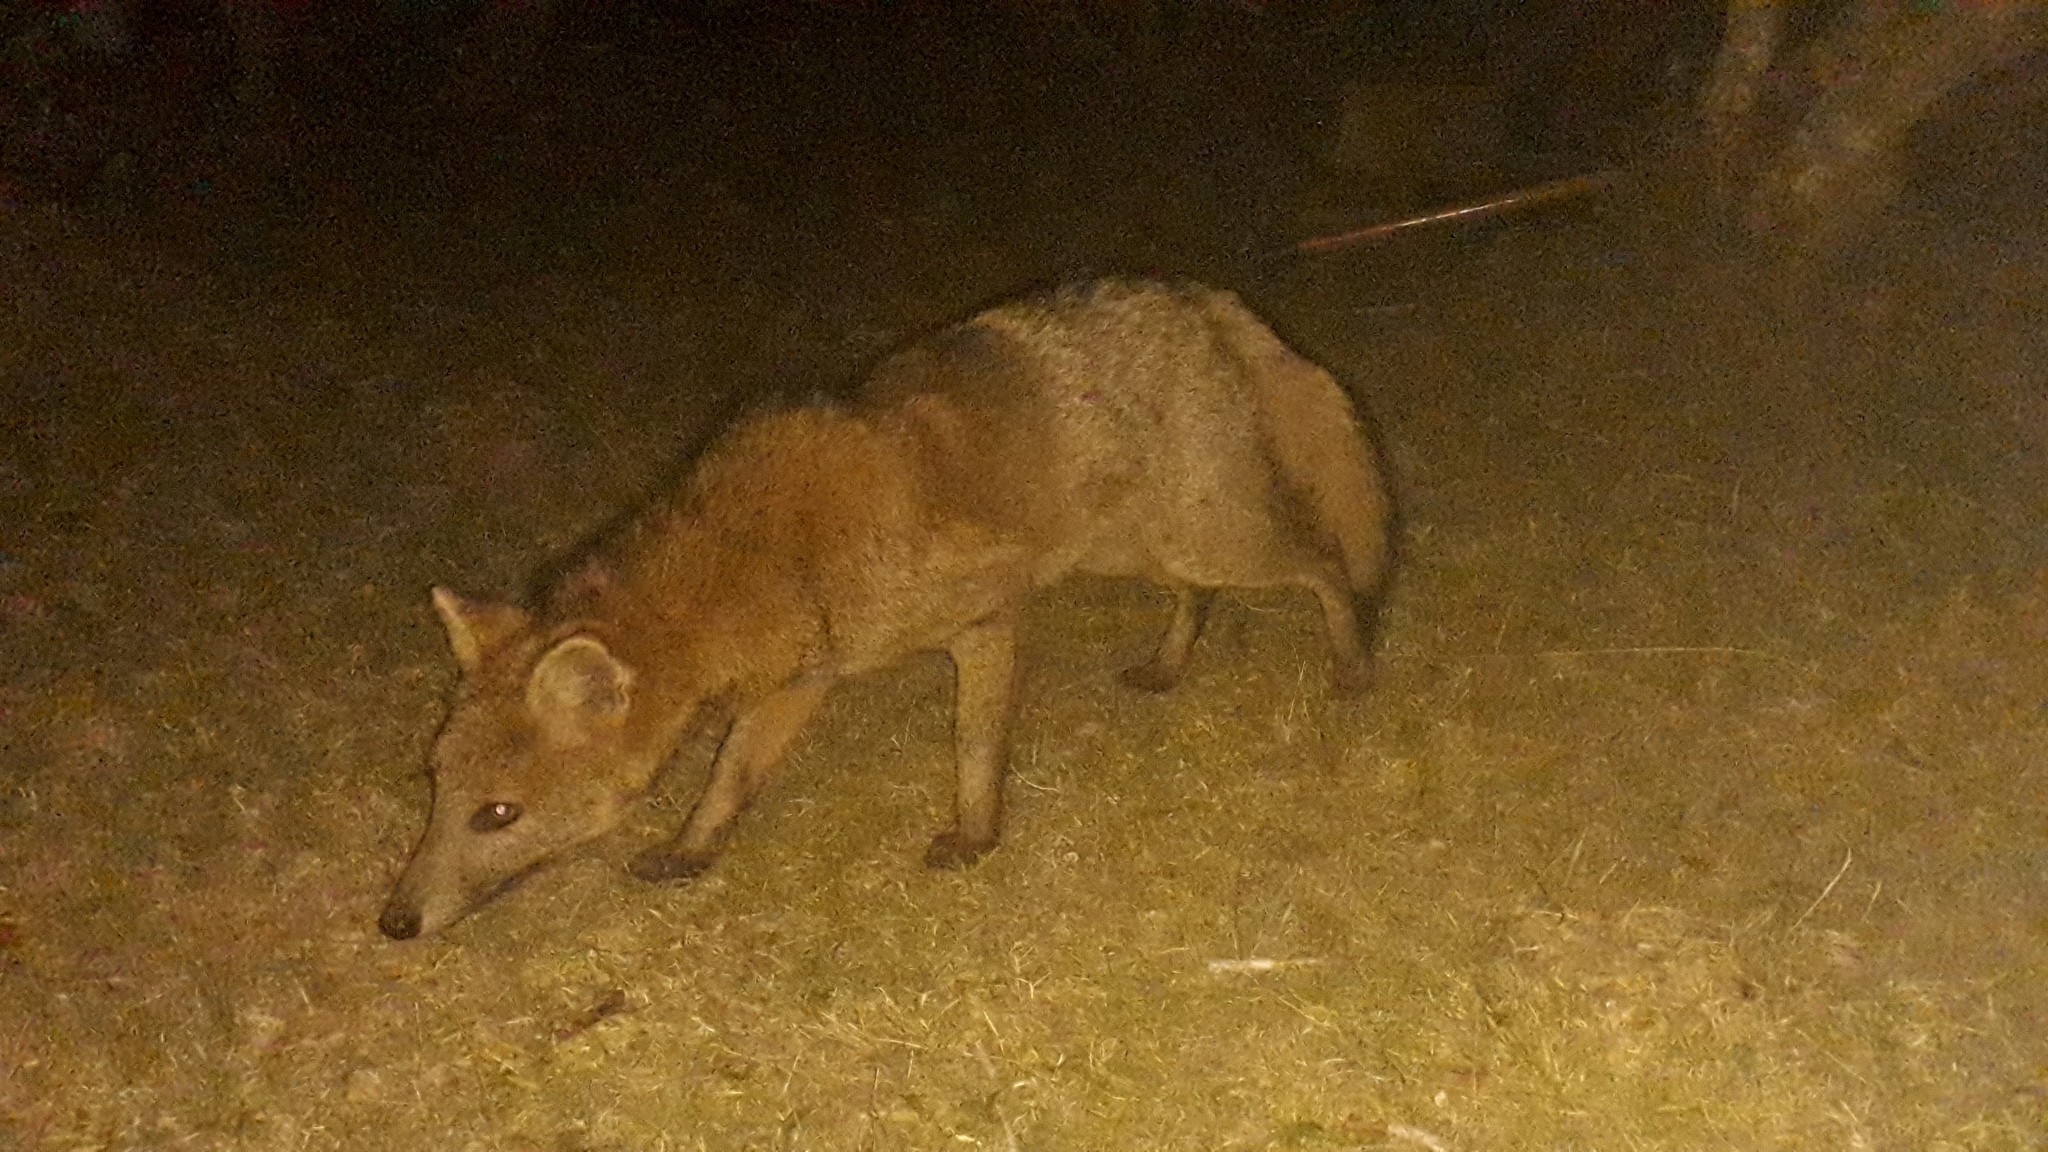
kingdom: Animalia
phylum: Chordata
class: Mammalia
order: Carnivora
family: Canidae
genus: Cerdocyon
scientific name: Cerdocyon thous
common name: Crab-eating fox
